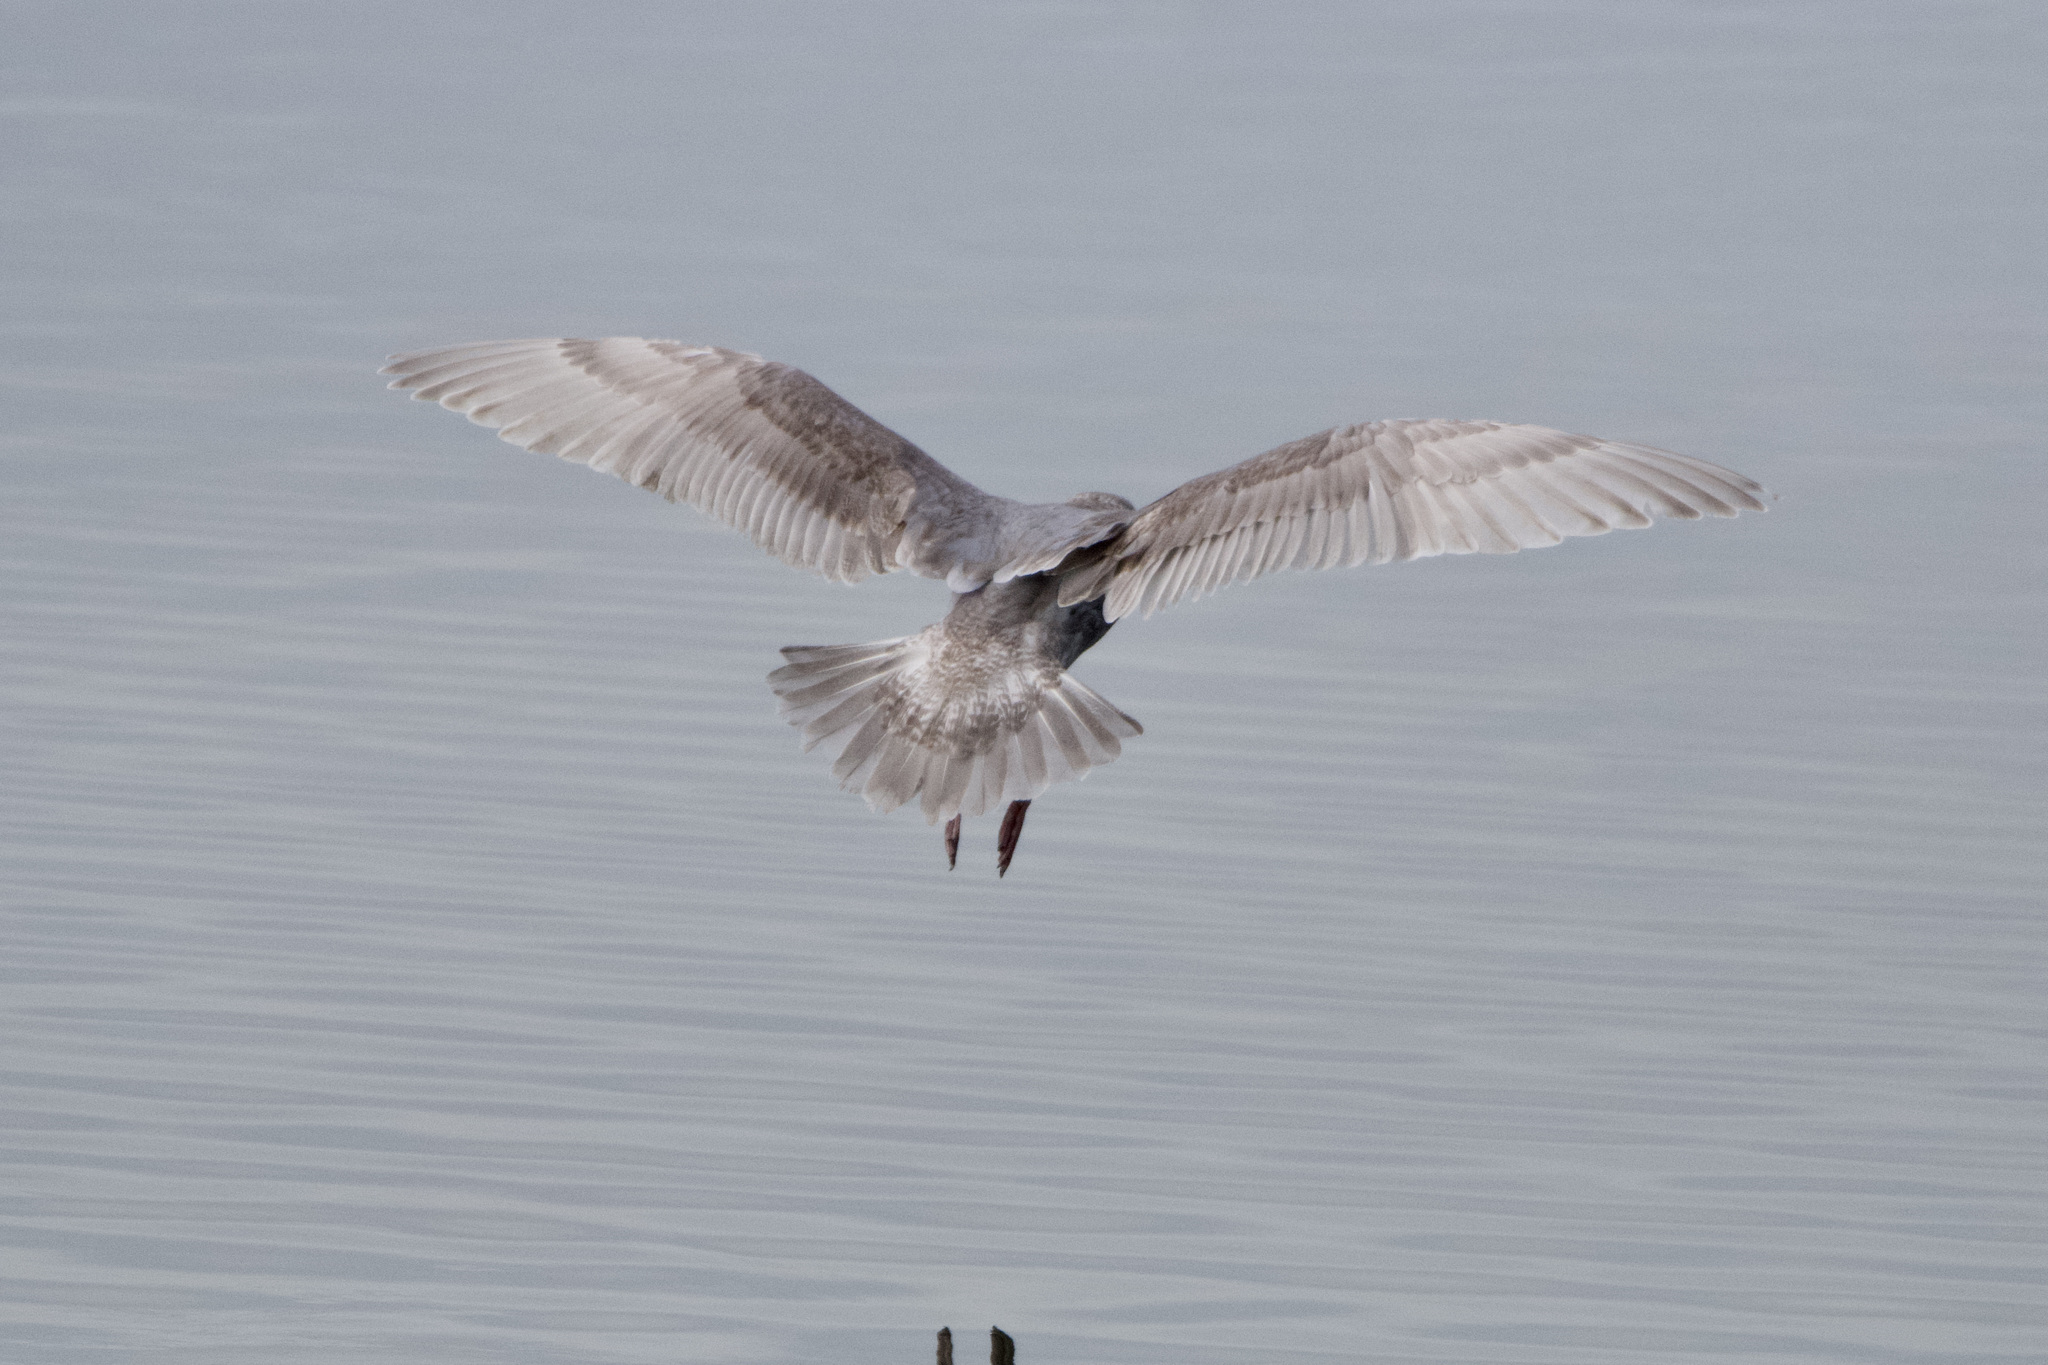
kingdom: Animalia
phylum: Chordata
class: Aves
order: Charadriiformes
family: Laridae
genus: Larus
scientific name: Larus glaucescens
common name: Glaucous-winged gull
